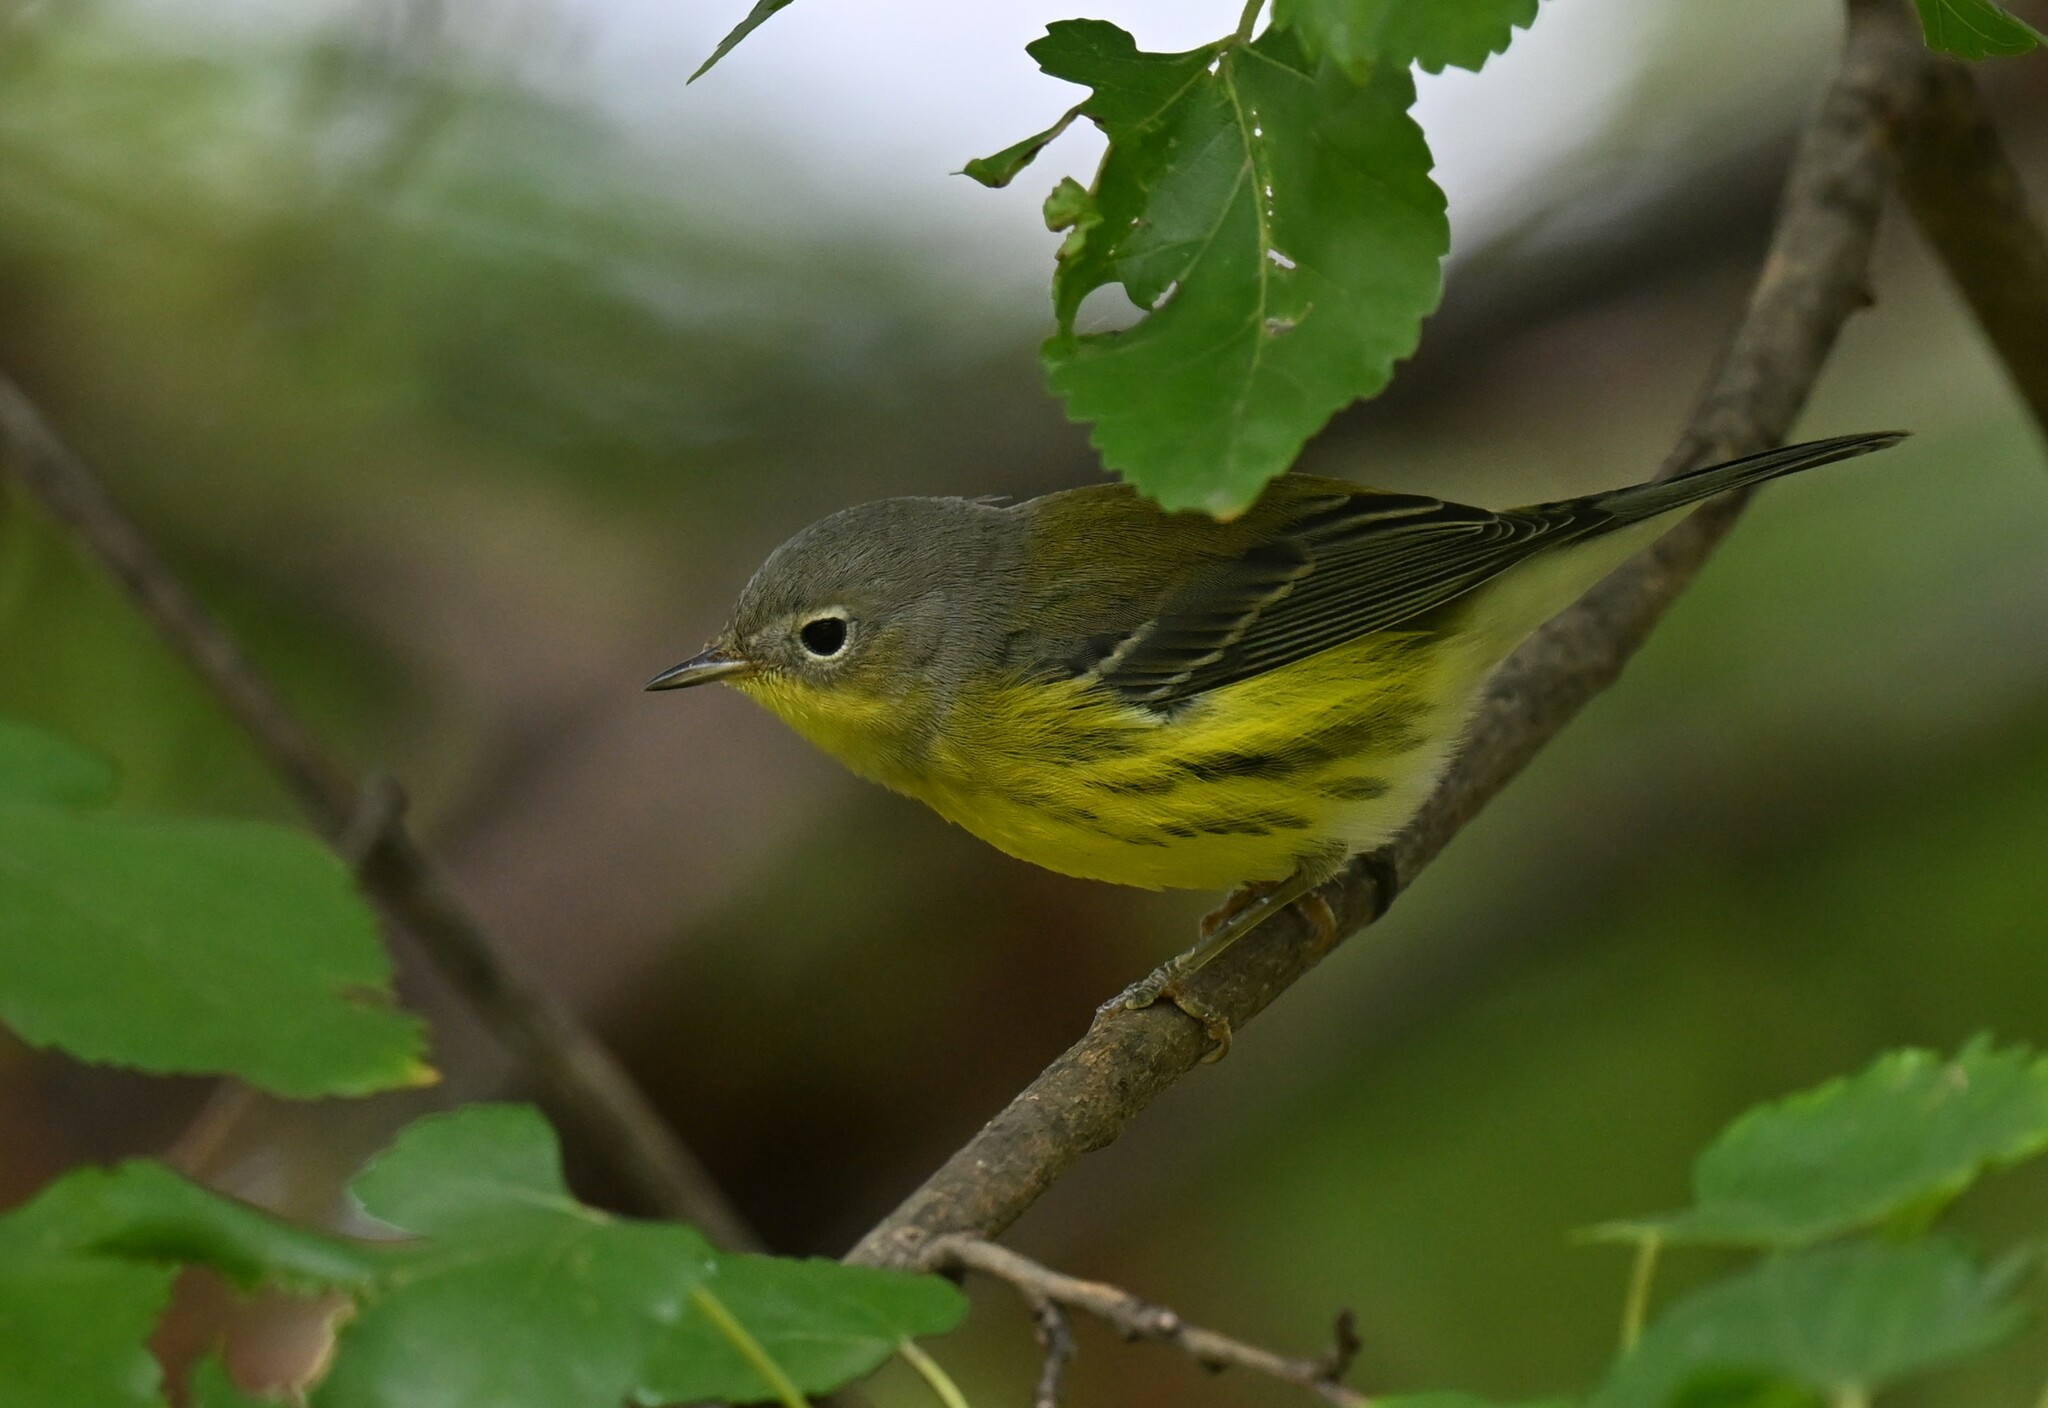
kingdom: Animalia
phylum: Chordata
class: Aves
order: Passeriformes
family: Parulidae
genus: Setophaga
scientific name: Setophaga magnolia
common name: Magnolia warbler
